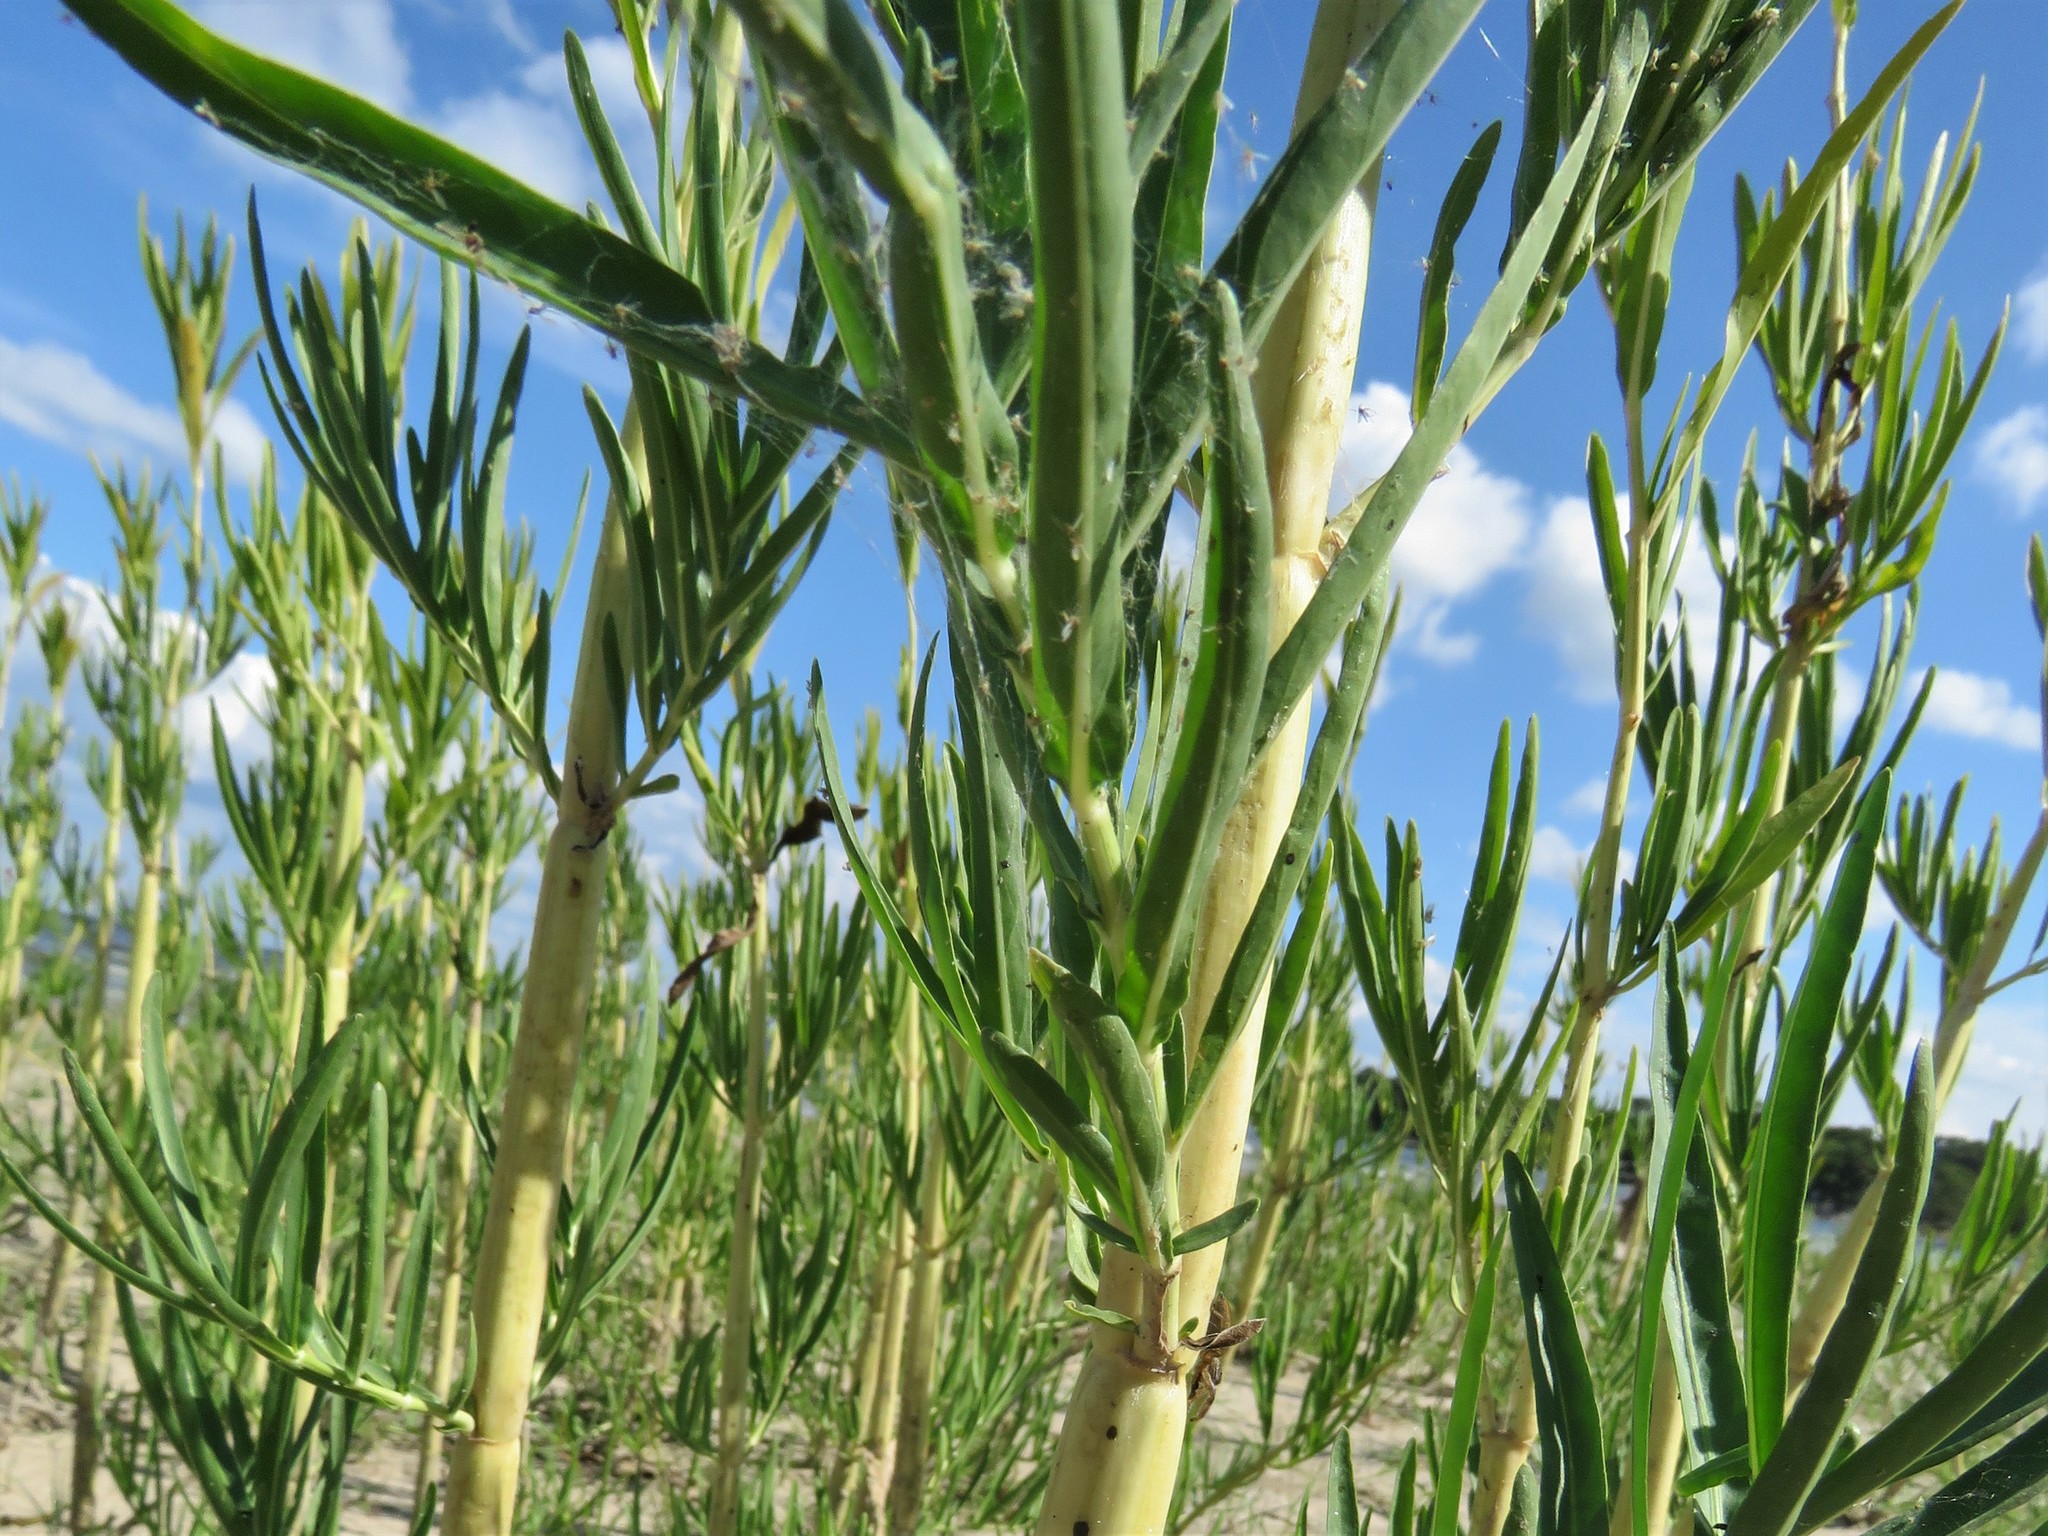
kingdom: Plantae
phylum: Tracheophyta
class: Magnoliopsida
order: Lamiales
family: Acanthaceae
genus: Dianthera
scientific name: Dianthera americana
